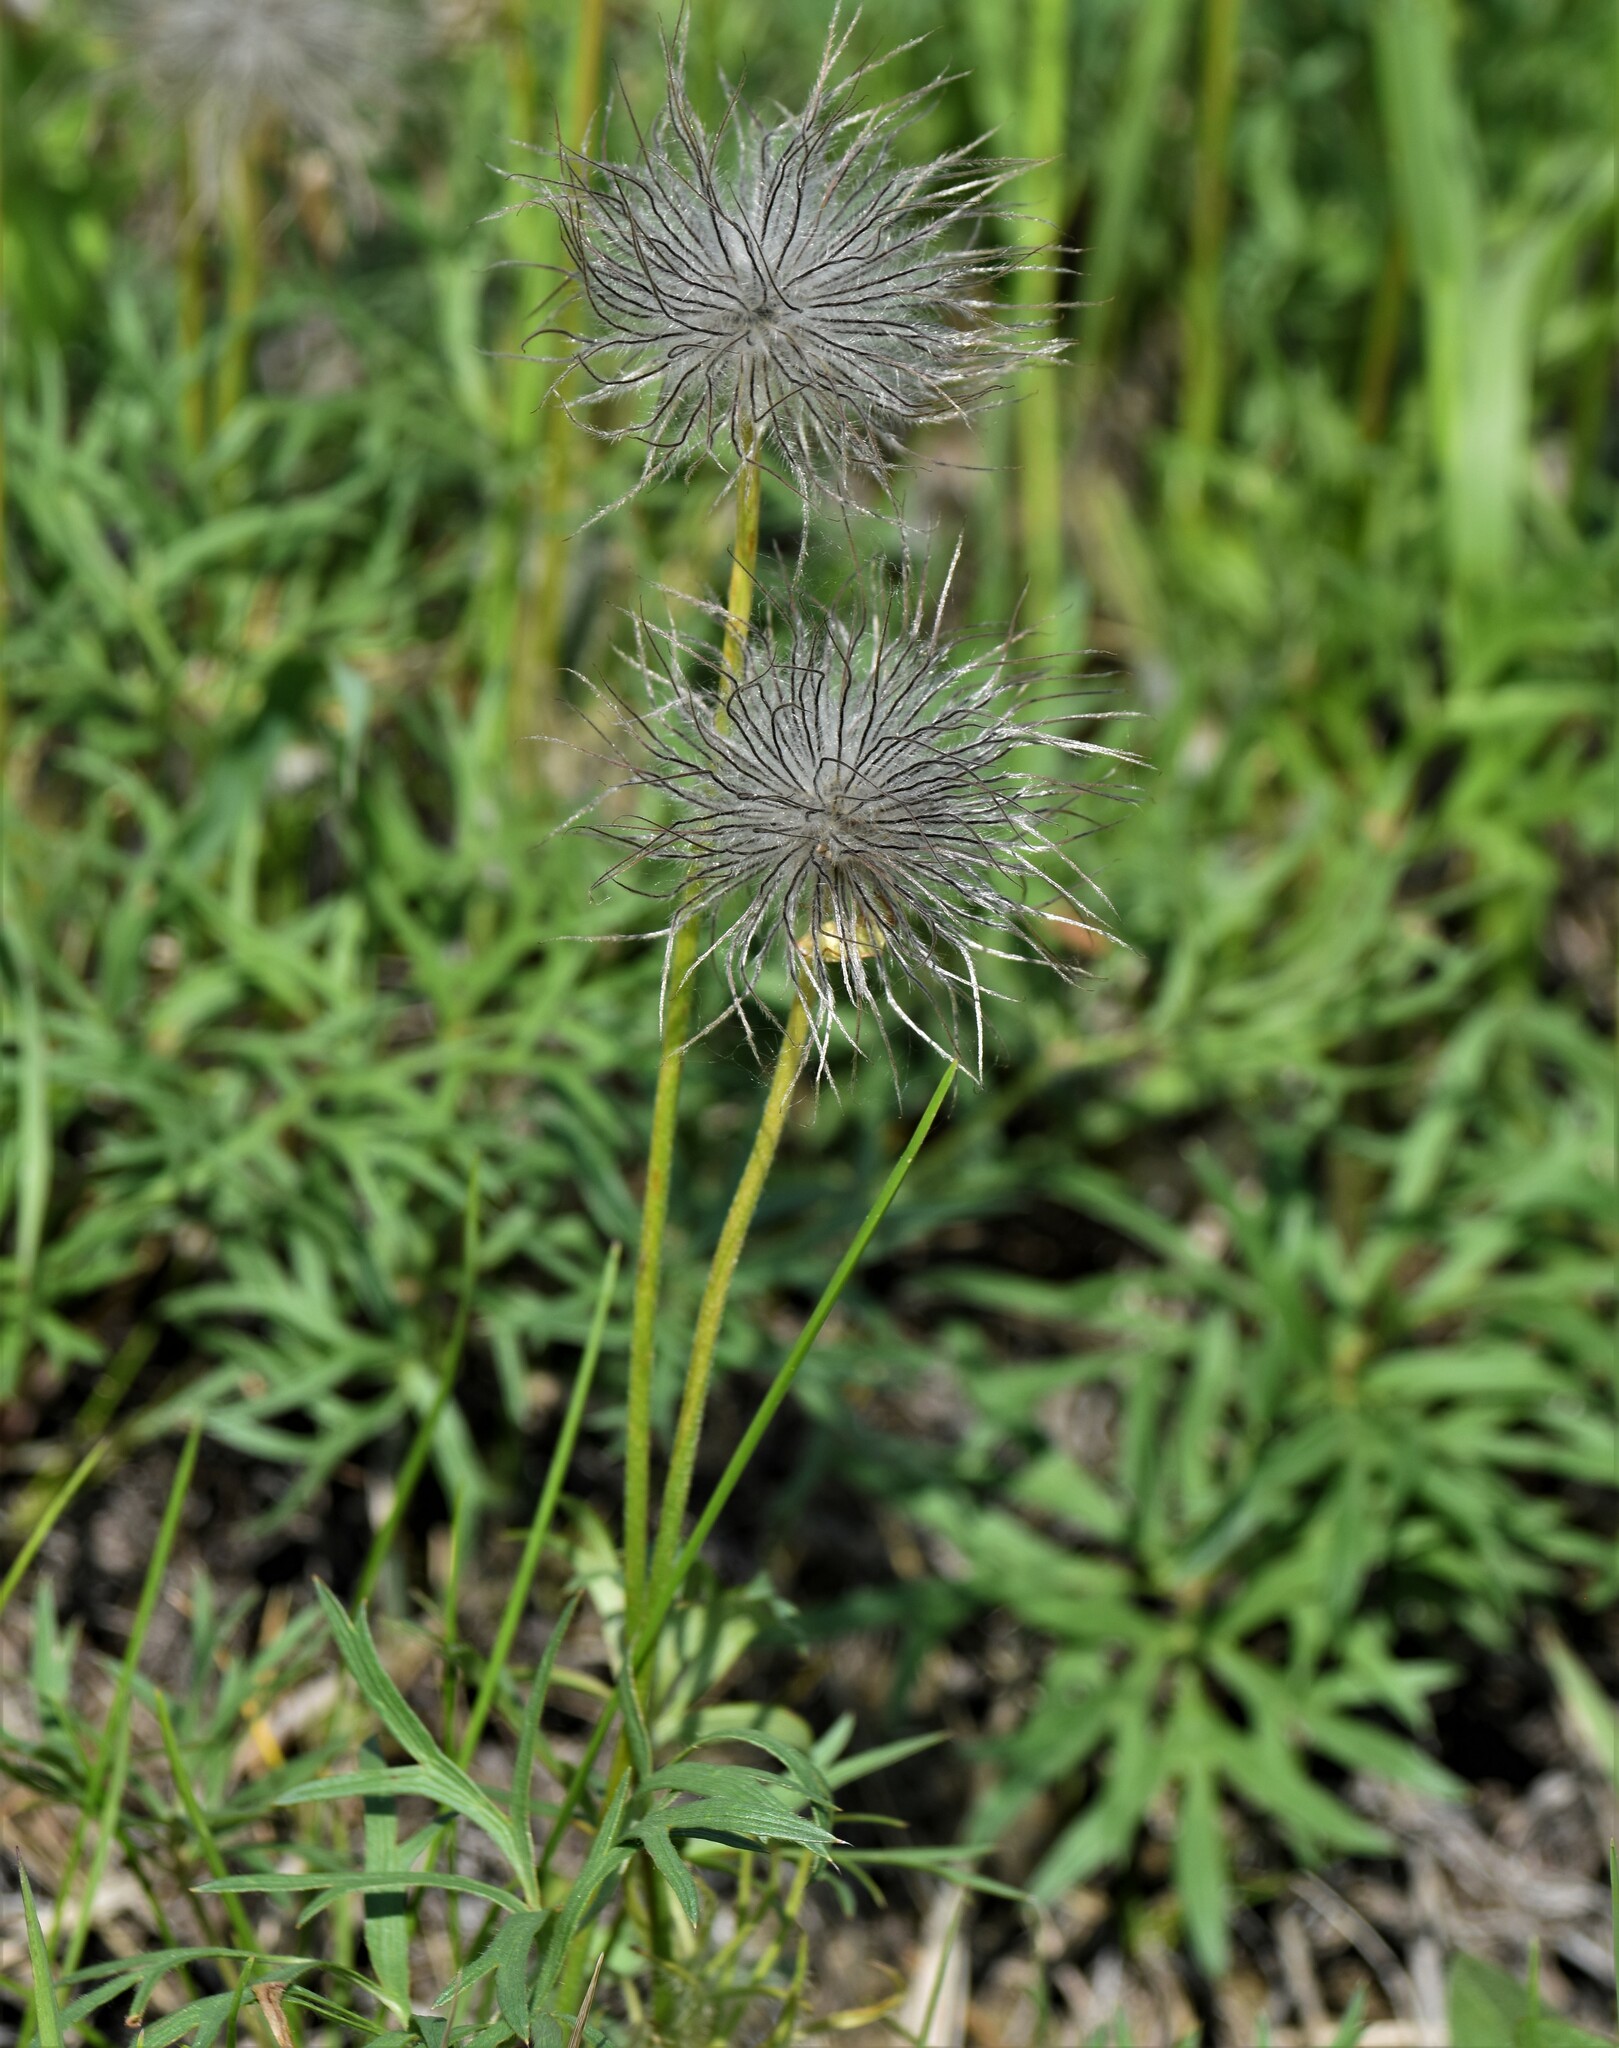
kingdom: Plantae
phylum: Tracheophyta
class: Magnoliopsida
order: Ranunculales
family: Ranunculaceae
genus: Pulsatilla
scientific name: Pulsatilla nuttalliana
